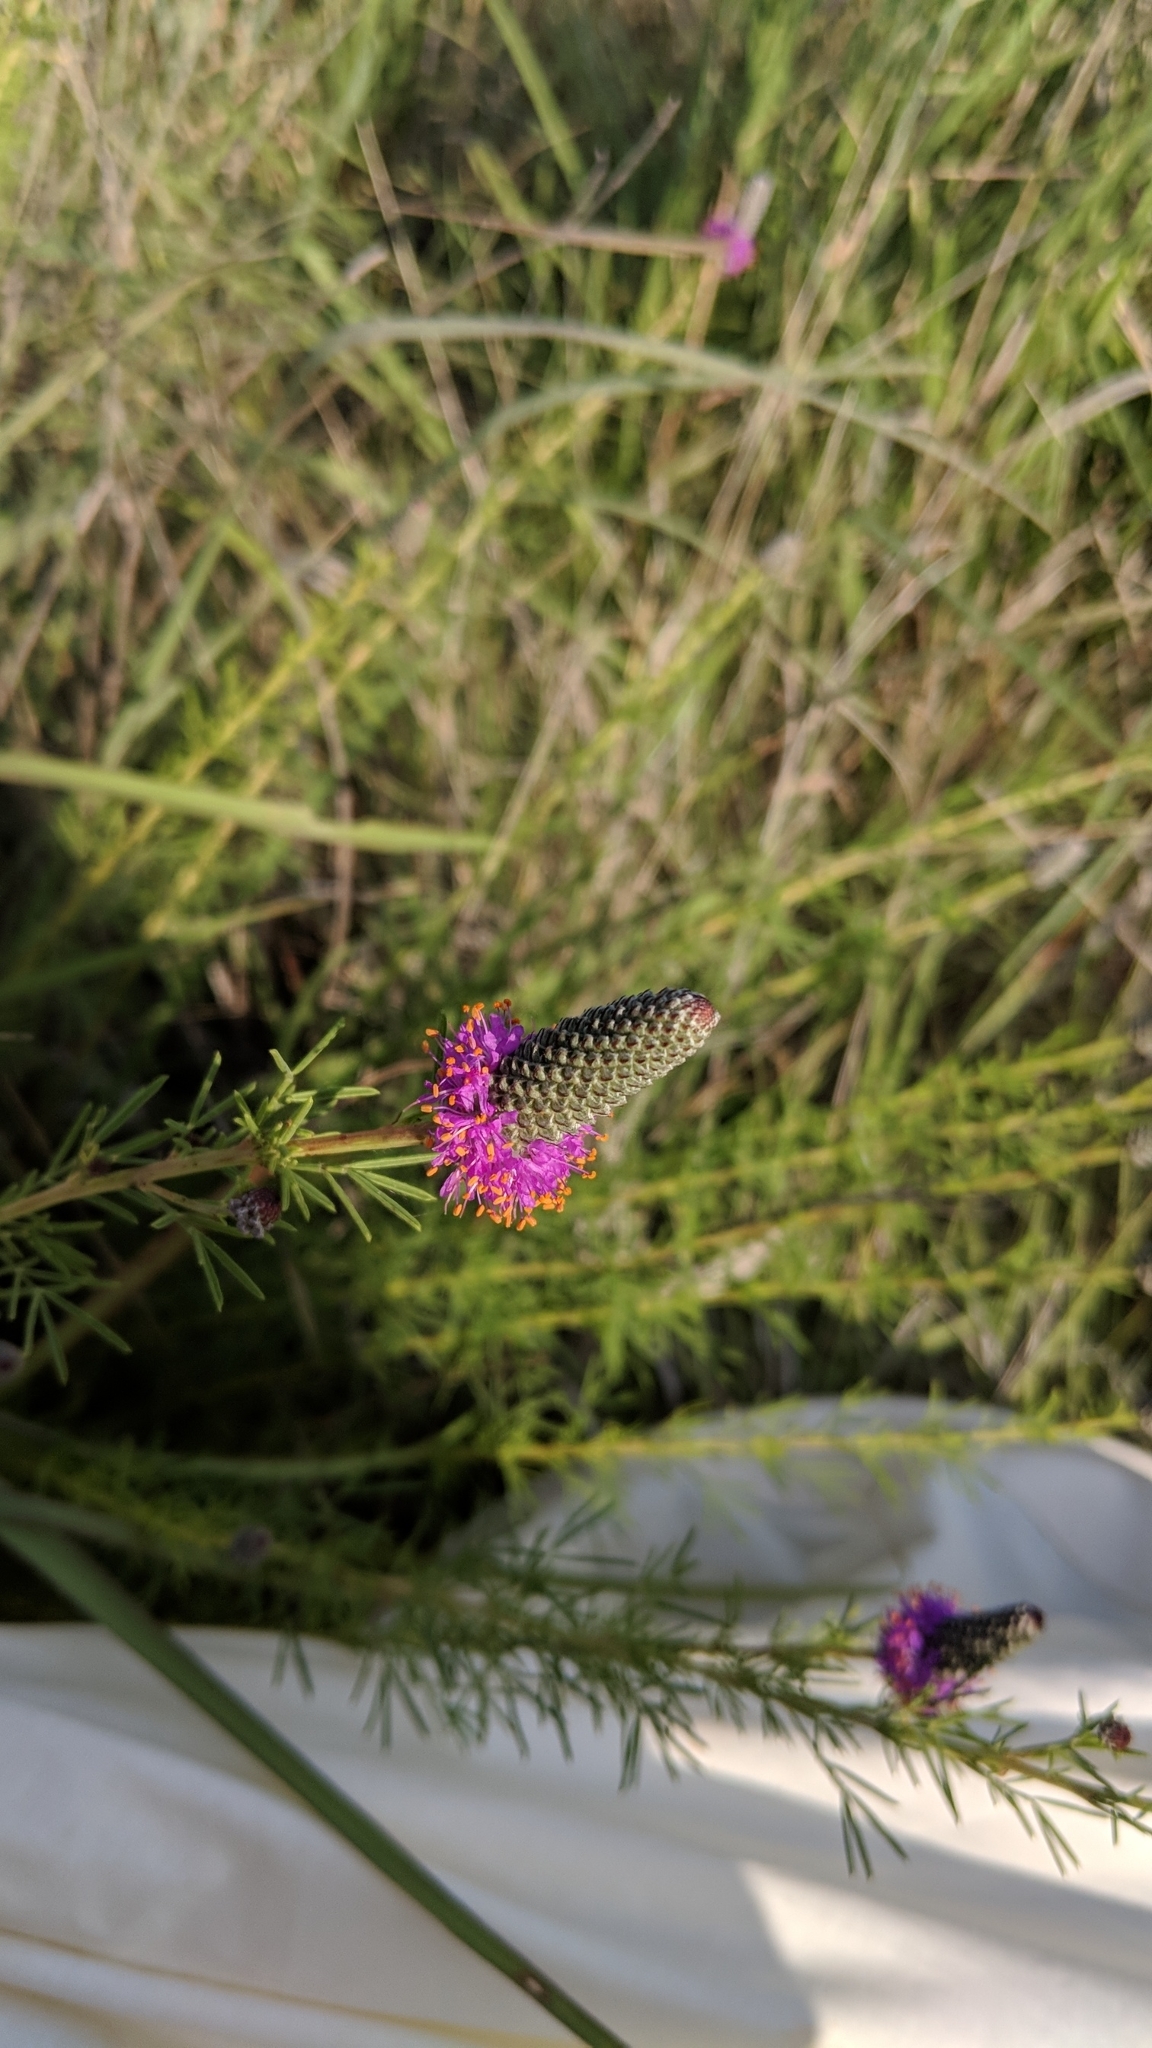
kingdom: Plantae
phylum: Tracheophyta
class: Magnoliopsida
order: Fabales
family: Fabaceae
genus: Dalea
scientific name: Dalea purpurea
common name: Purple prairie-clover
